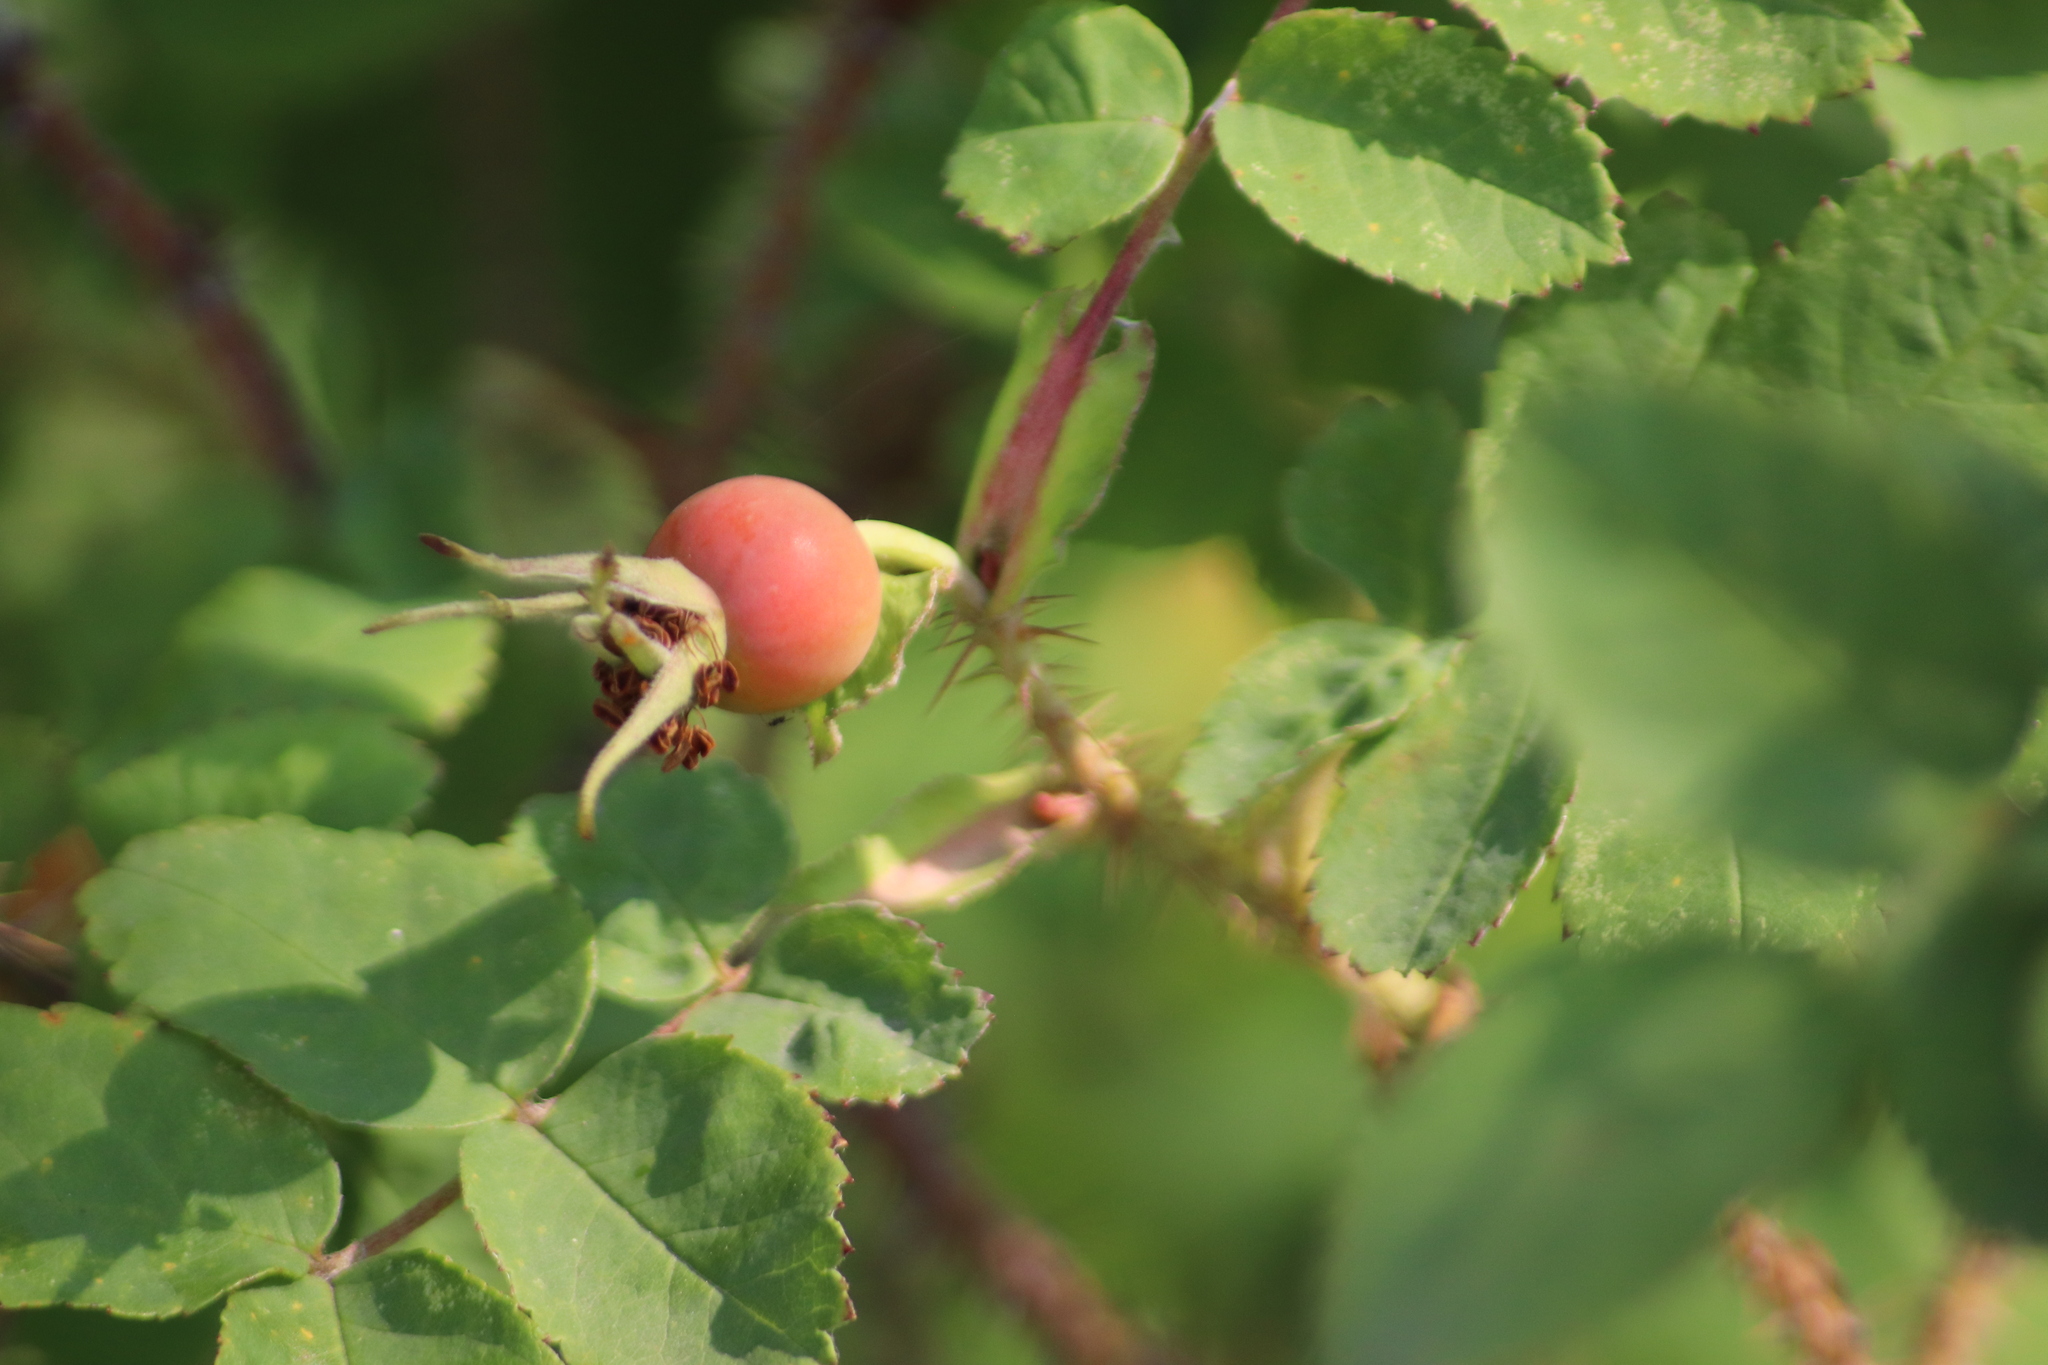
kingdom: Plantae
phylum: Tracheophyta
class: Magnoliopsida
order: Rosales
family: Rosaceae
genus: Rosa
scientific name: Rosa acicularis
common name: Prickly rose
